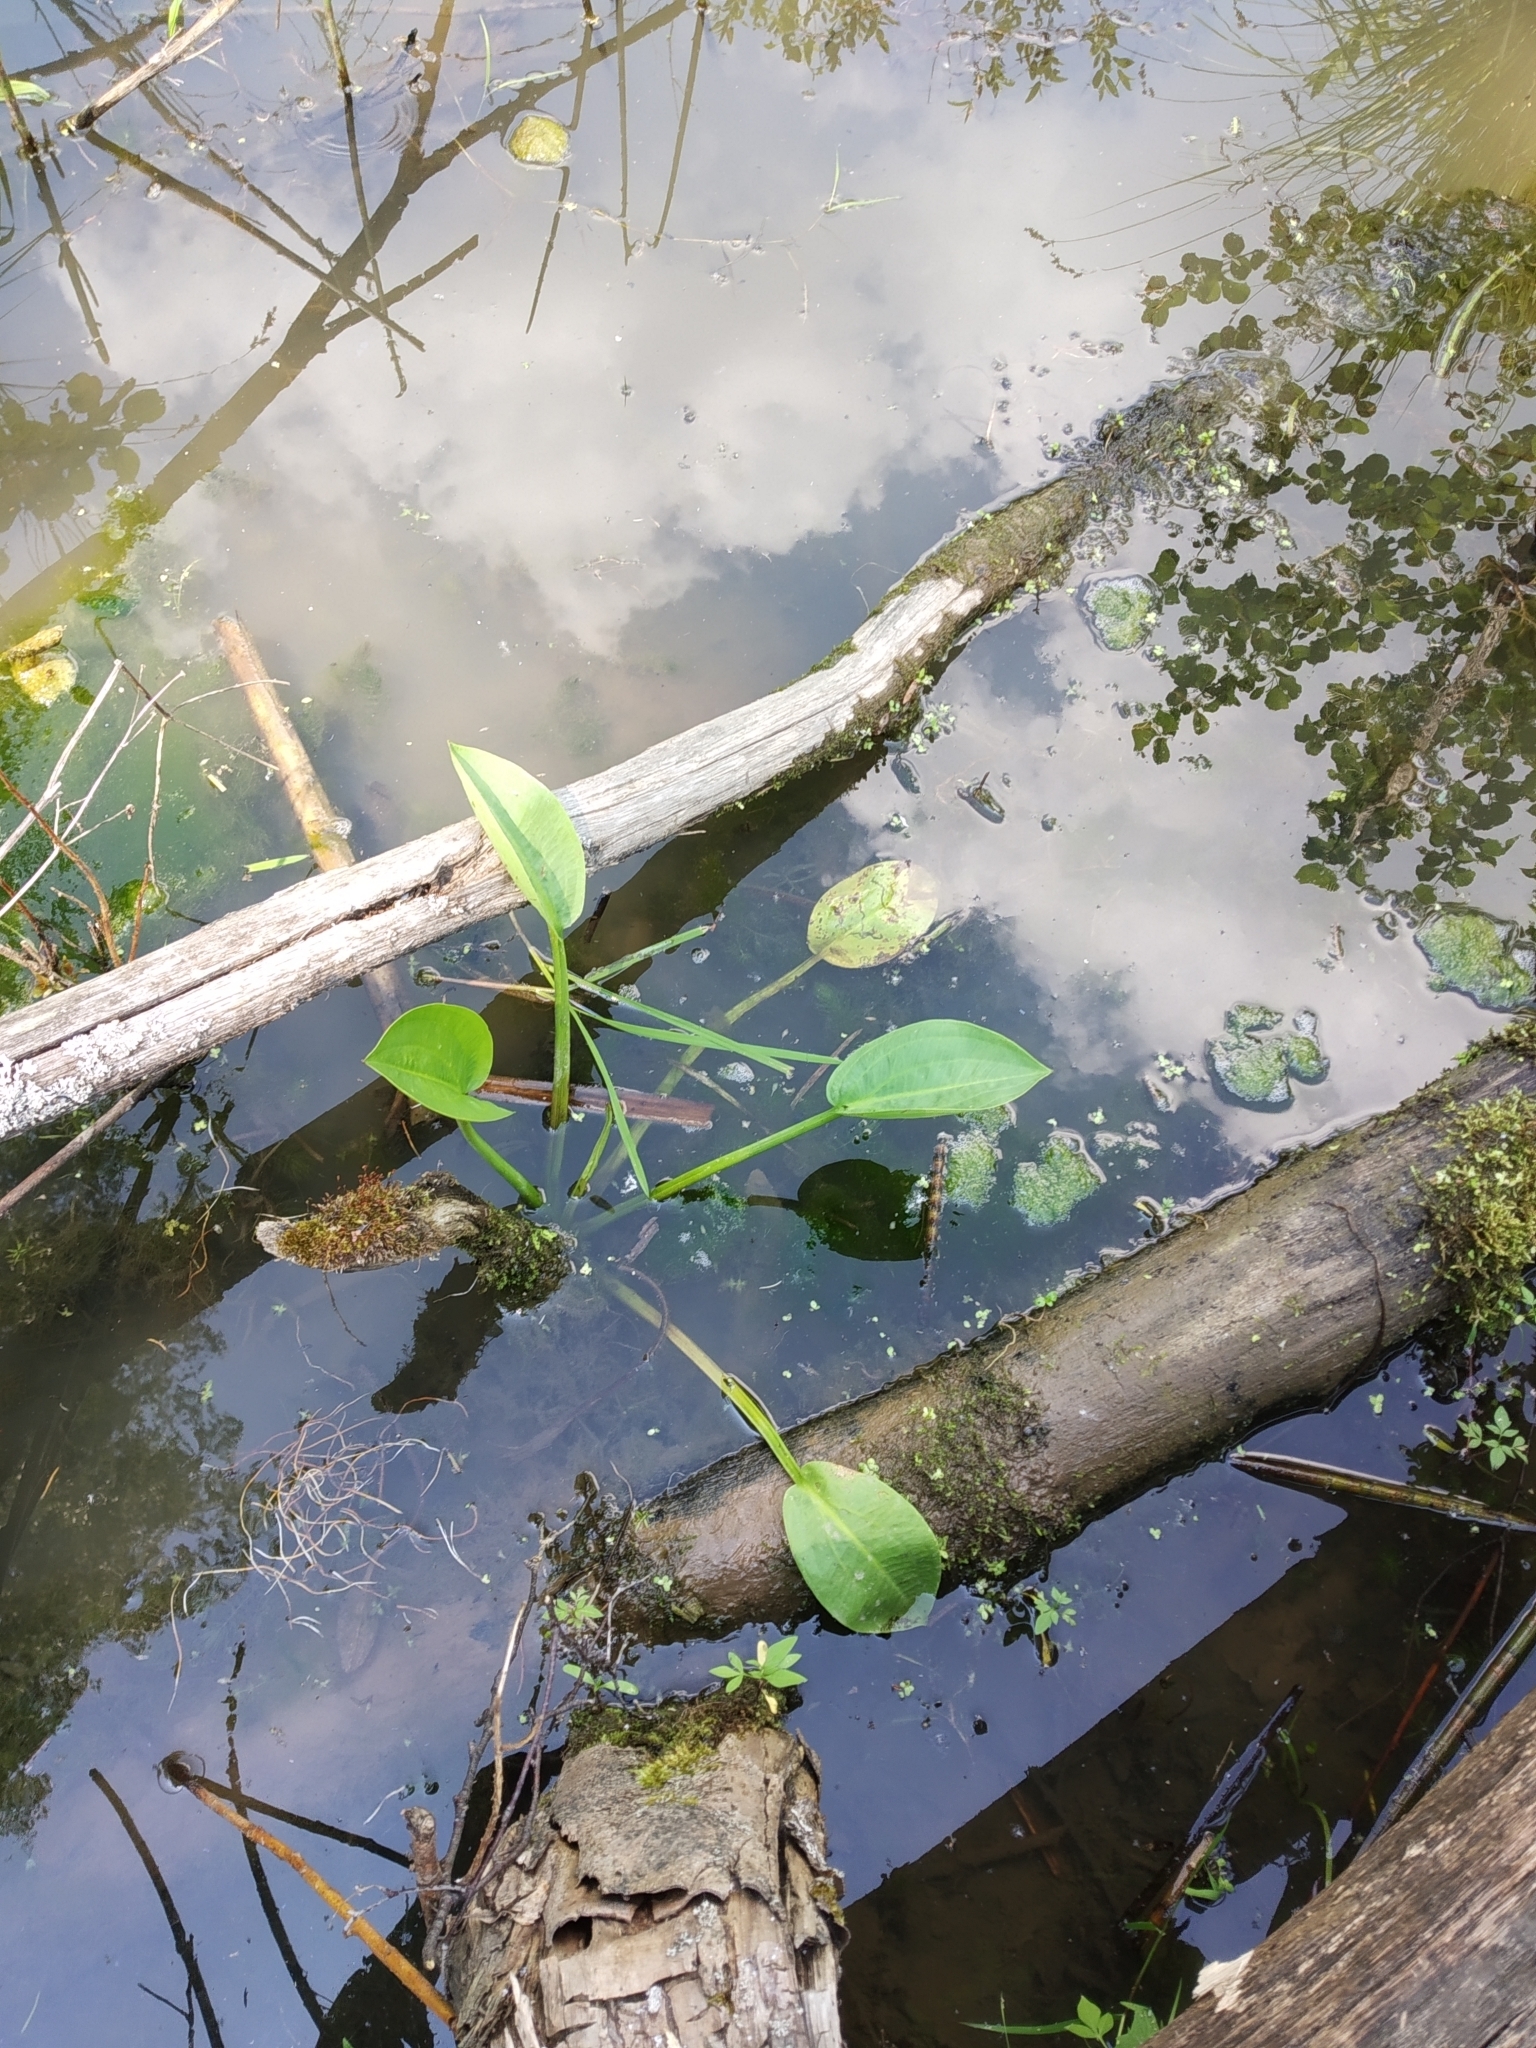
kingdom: Plantae
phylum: Tracheophyta
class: Liliopsida
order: Alismatales
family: Alismataceae
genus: Alisma
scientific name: Alisma plantago-aquatica
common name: Water-plantain
